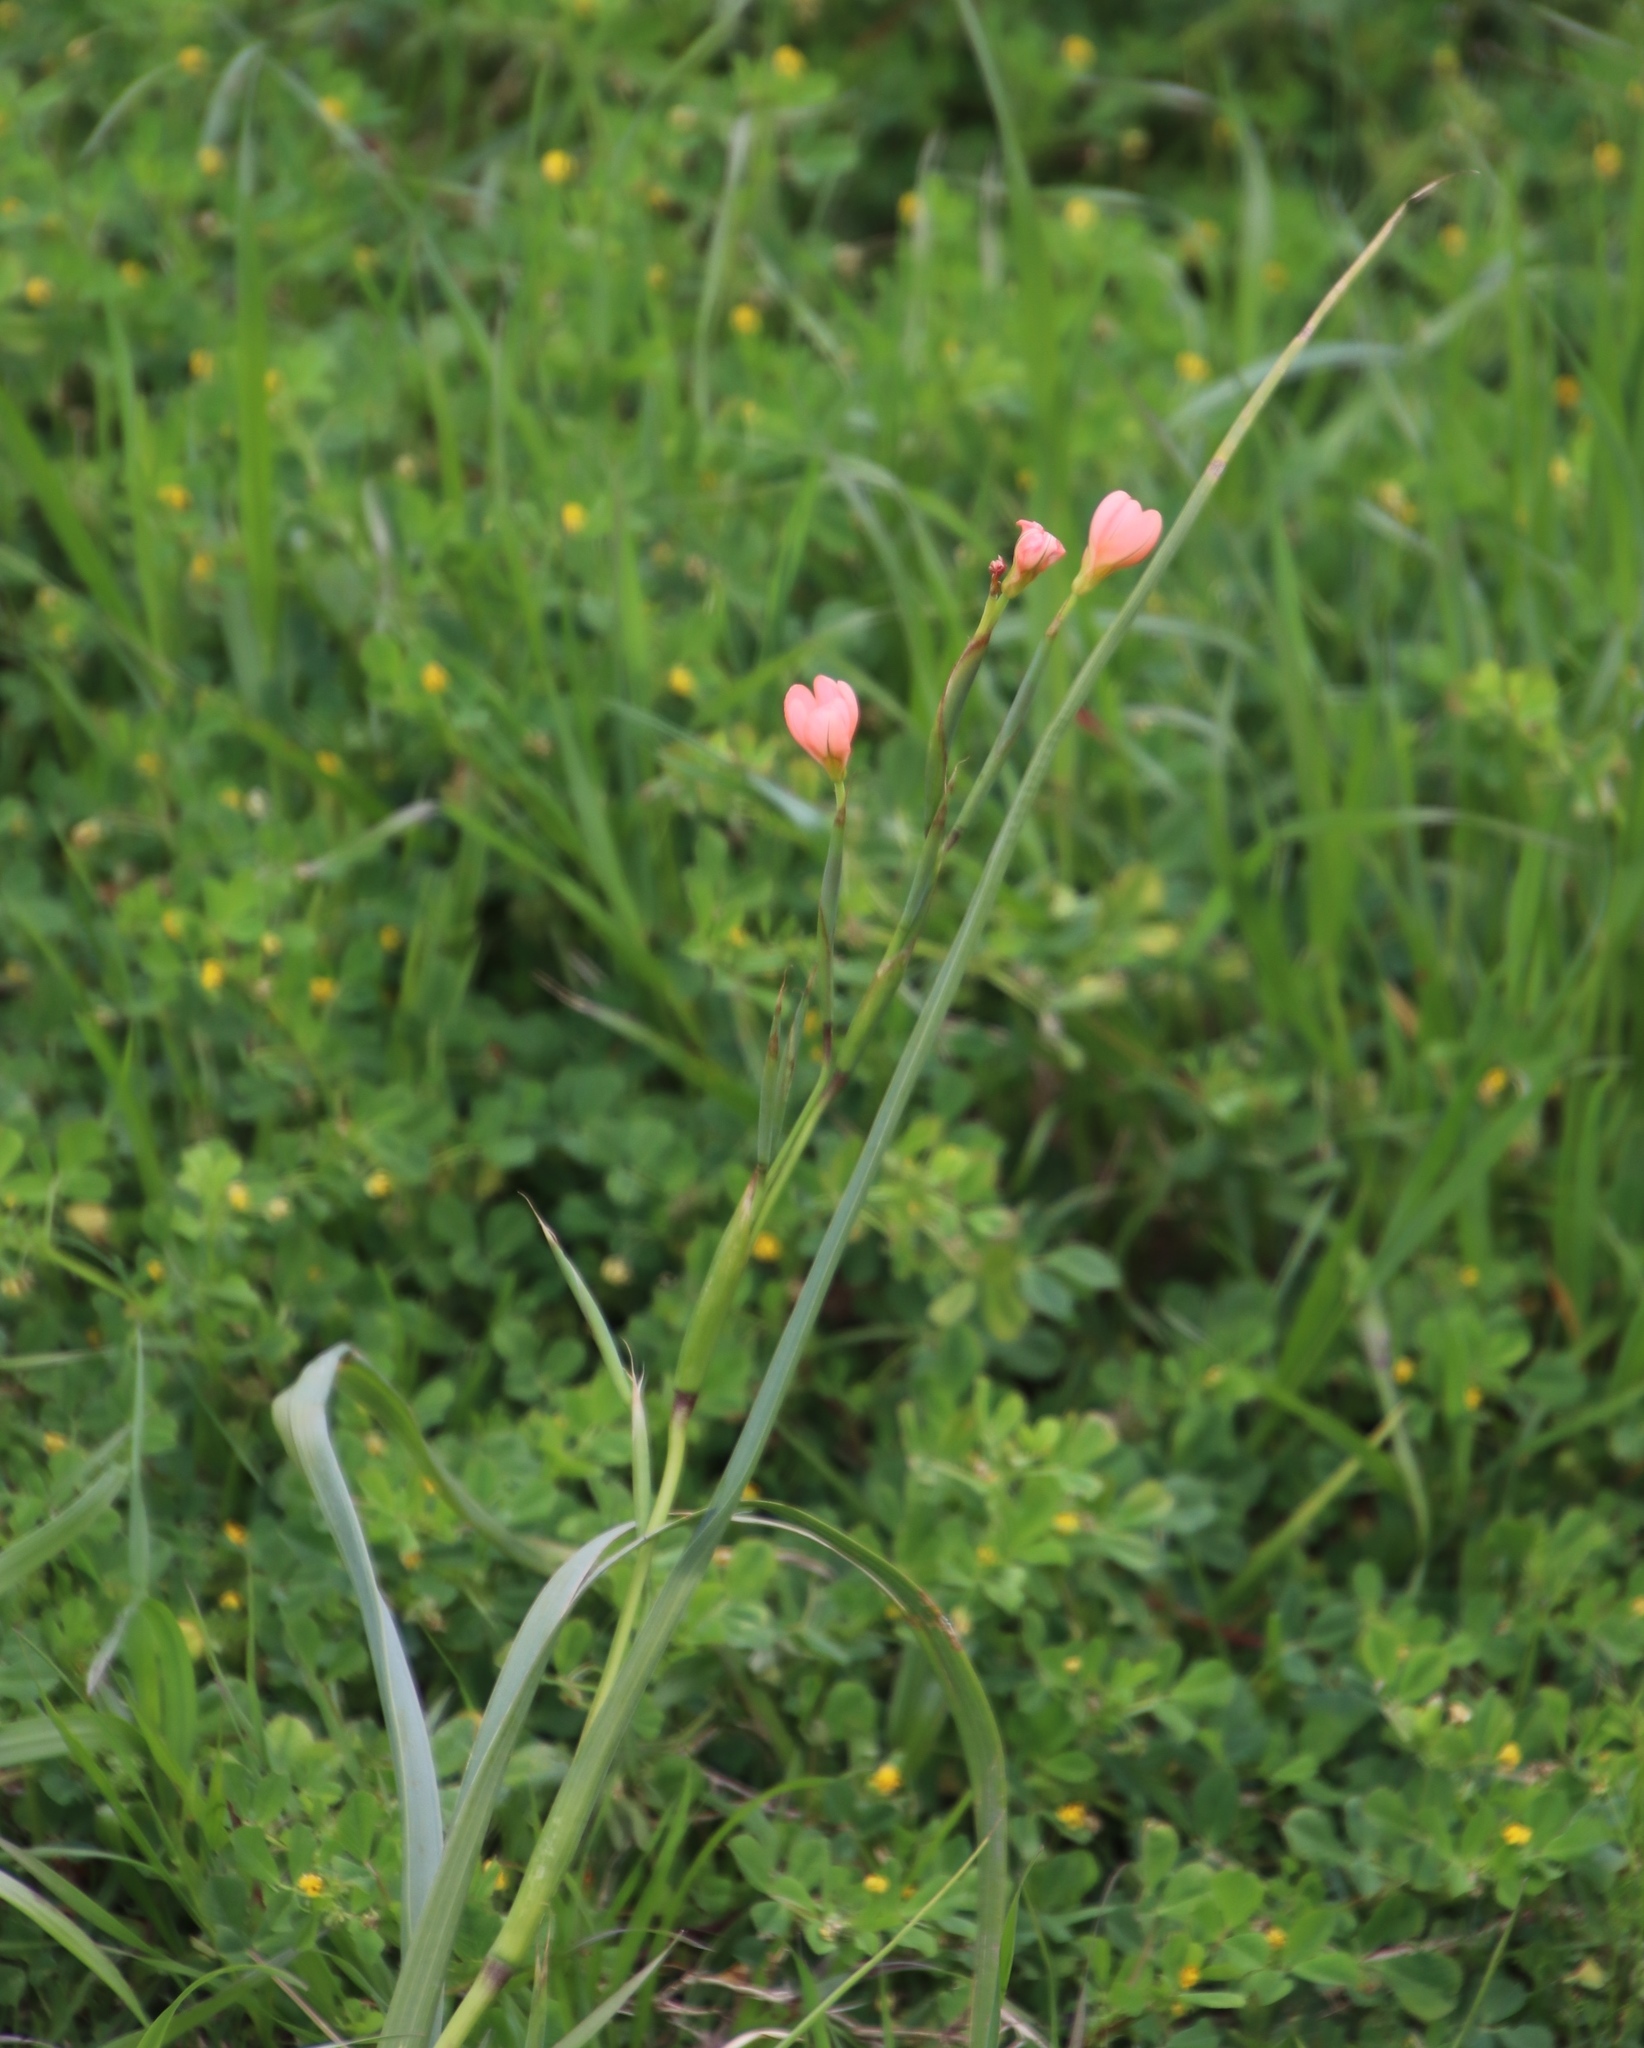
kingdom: Plantae
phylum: Tracheophyta
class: Liliopsida
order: Asparagales
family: Iridaceae
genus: Moraea
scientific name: Moraea miniata
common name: Two-leaf cape-tulip
